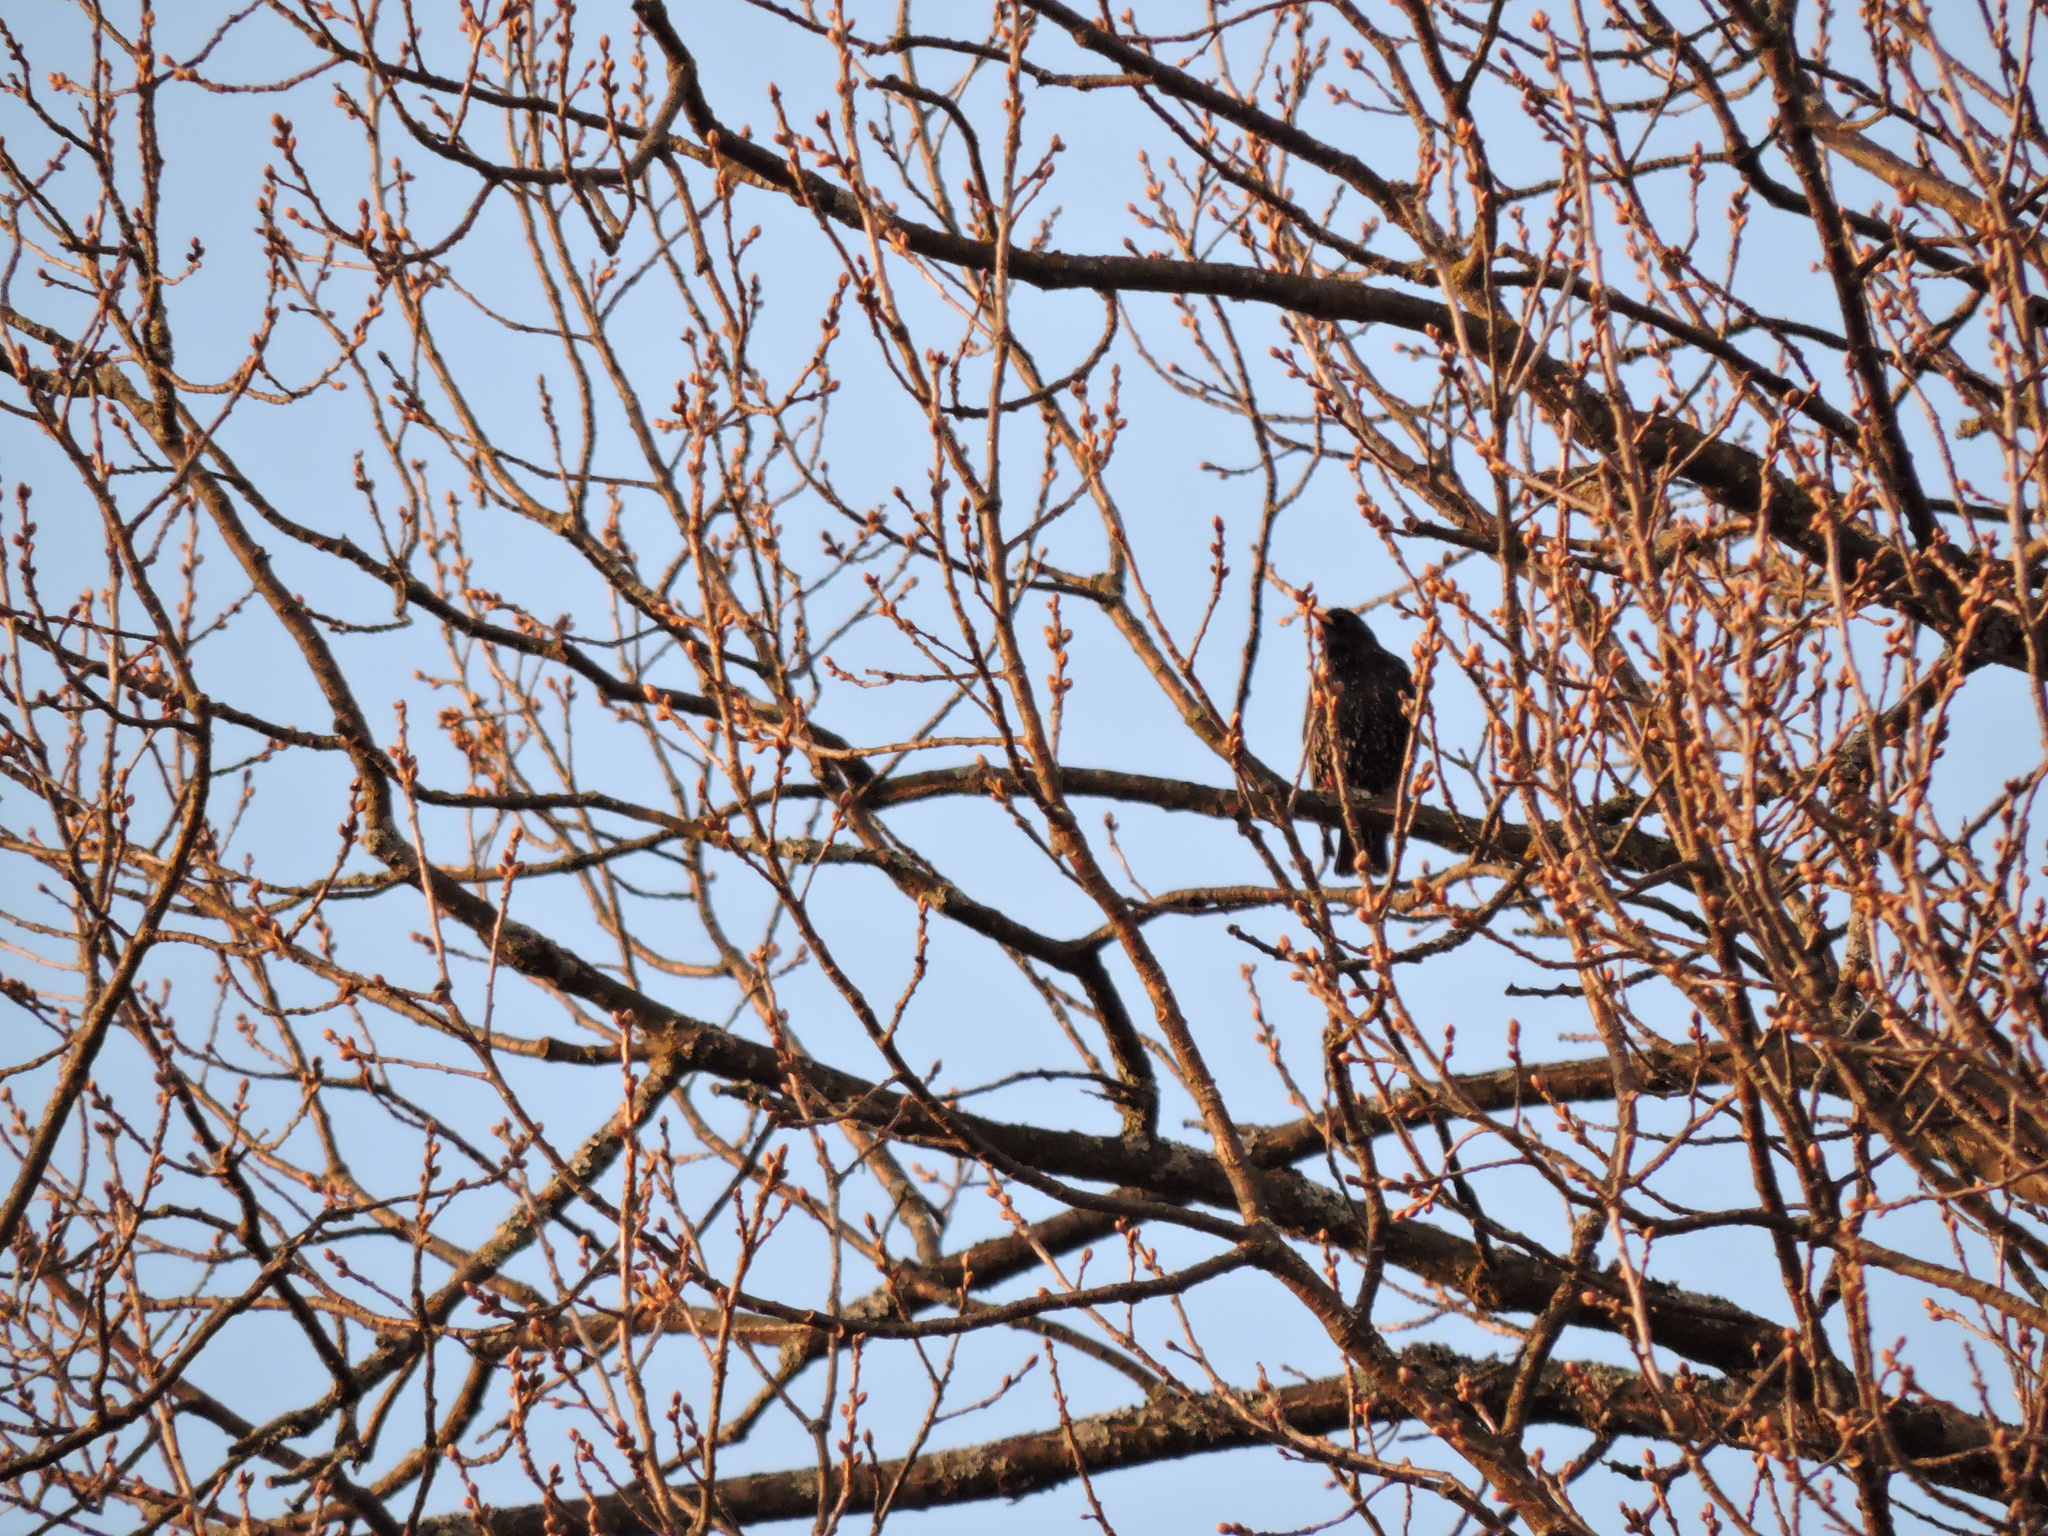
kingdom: Animalia
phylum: Chordata
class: Aves
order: Passeriformes
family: Sturnidae
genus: Sturnus
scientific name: Sturnus vulgaris
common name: Common starling
